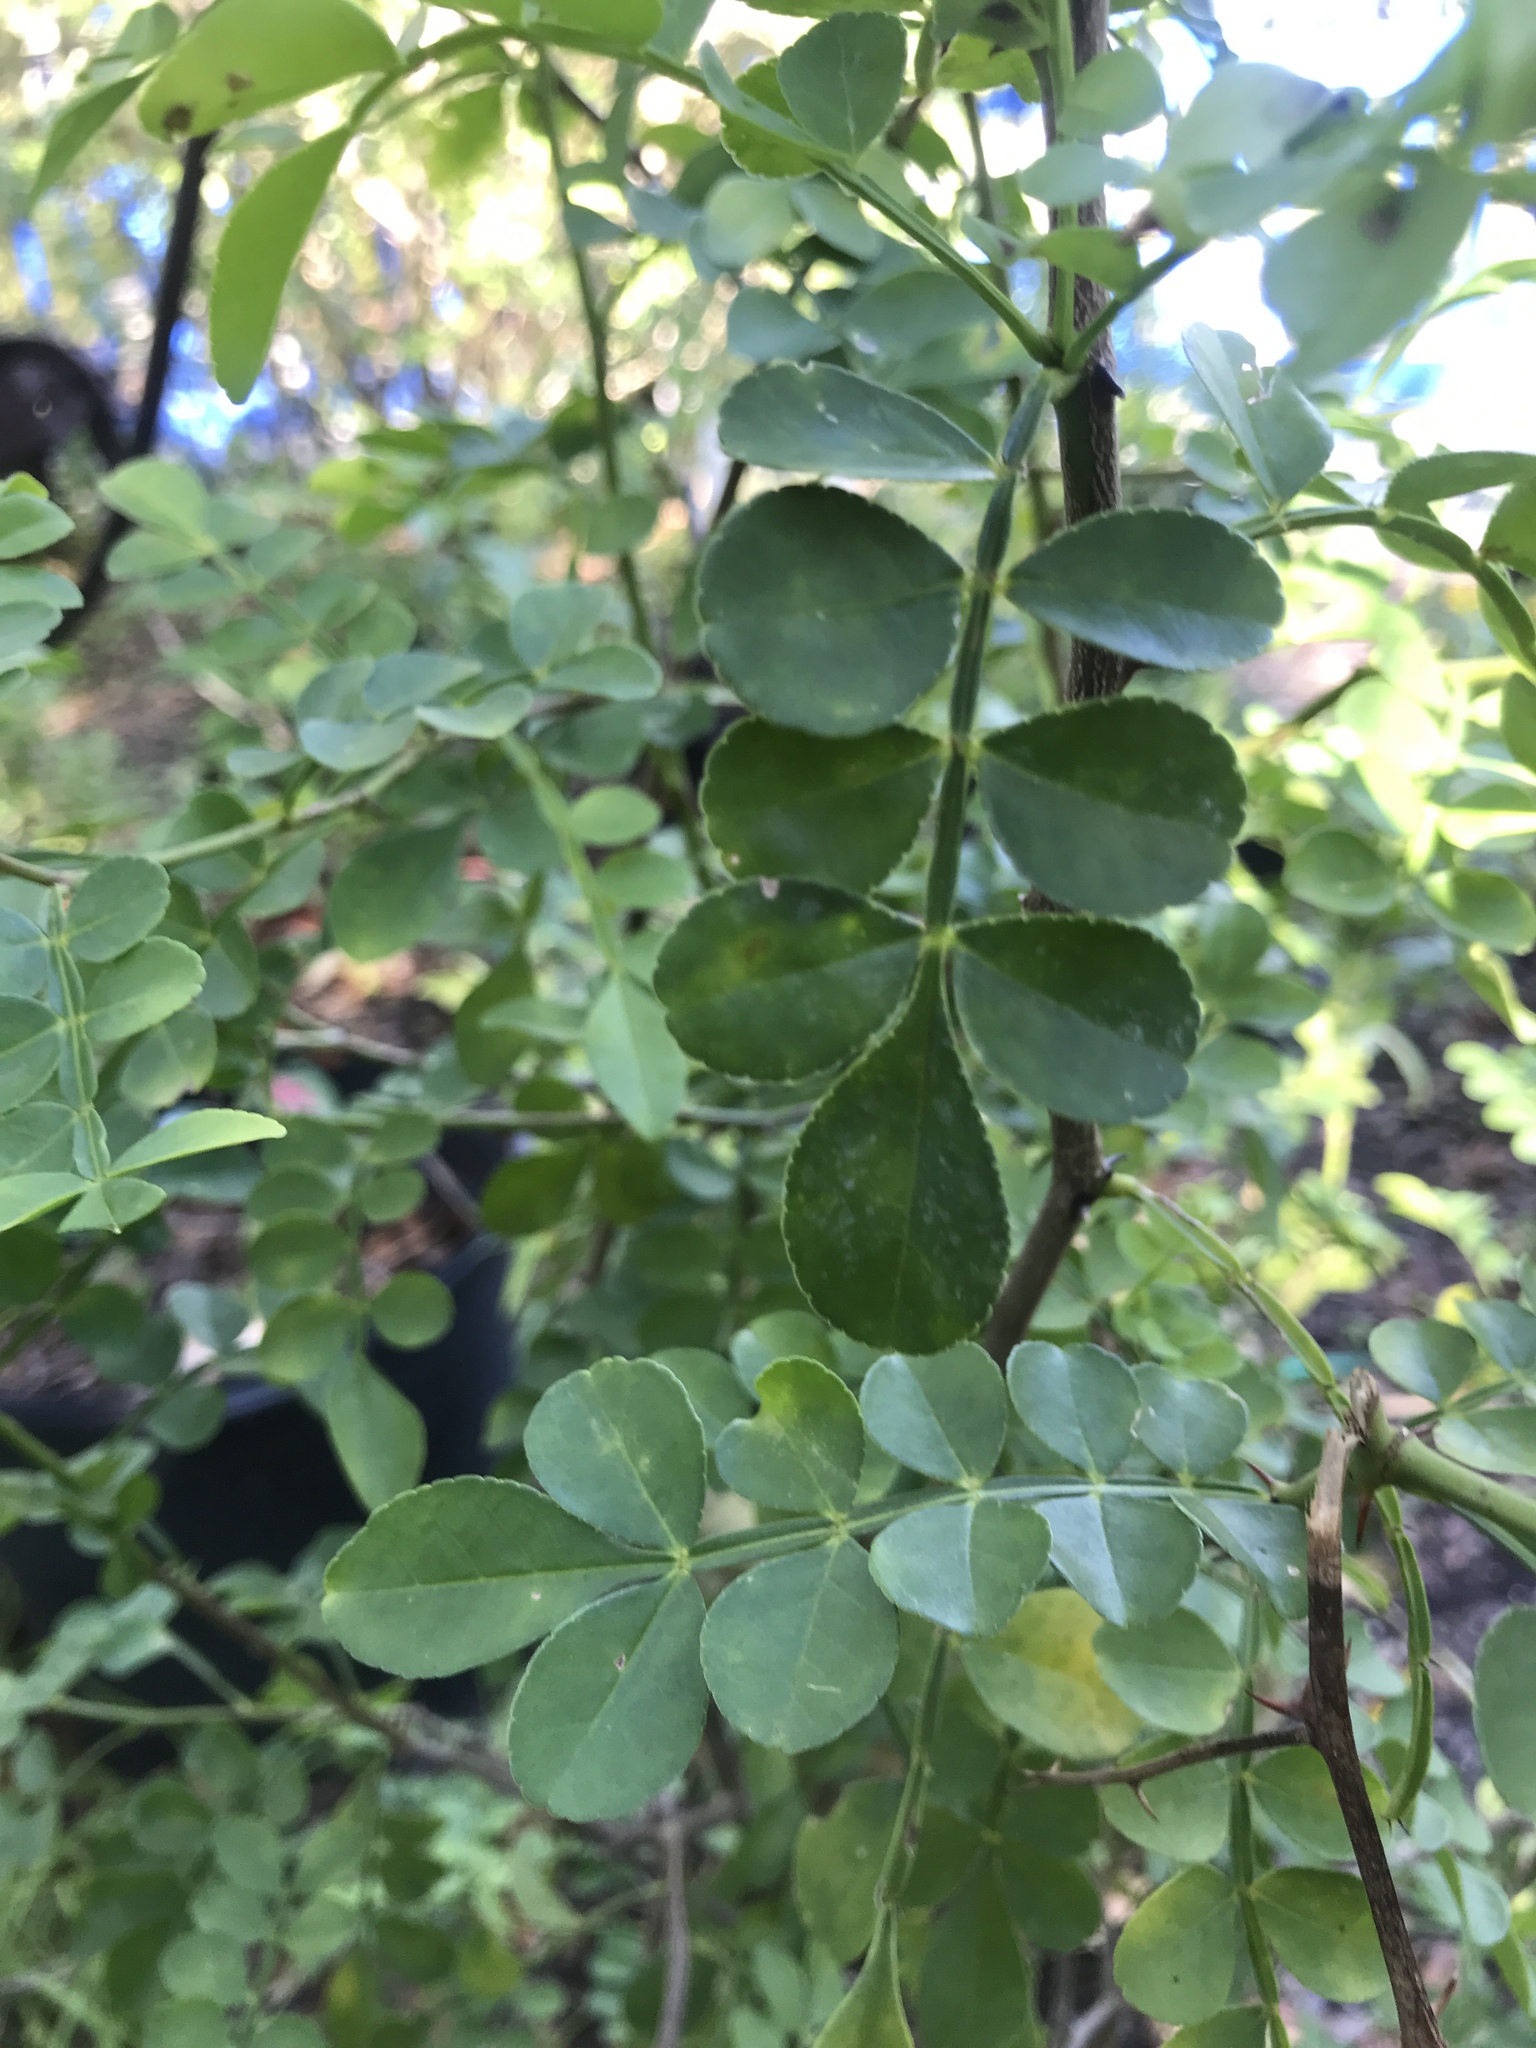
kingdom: Plantae
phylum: Tracheophyta
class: Magnoliopsida
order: Sapindales
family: Rutaceae
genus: Zanthoxylum
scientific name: Zanthoxylum fagara
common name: Lime prickly-ash
